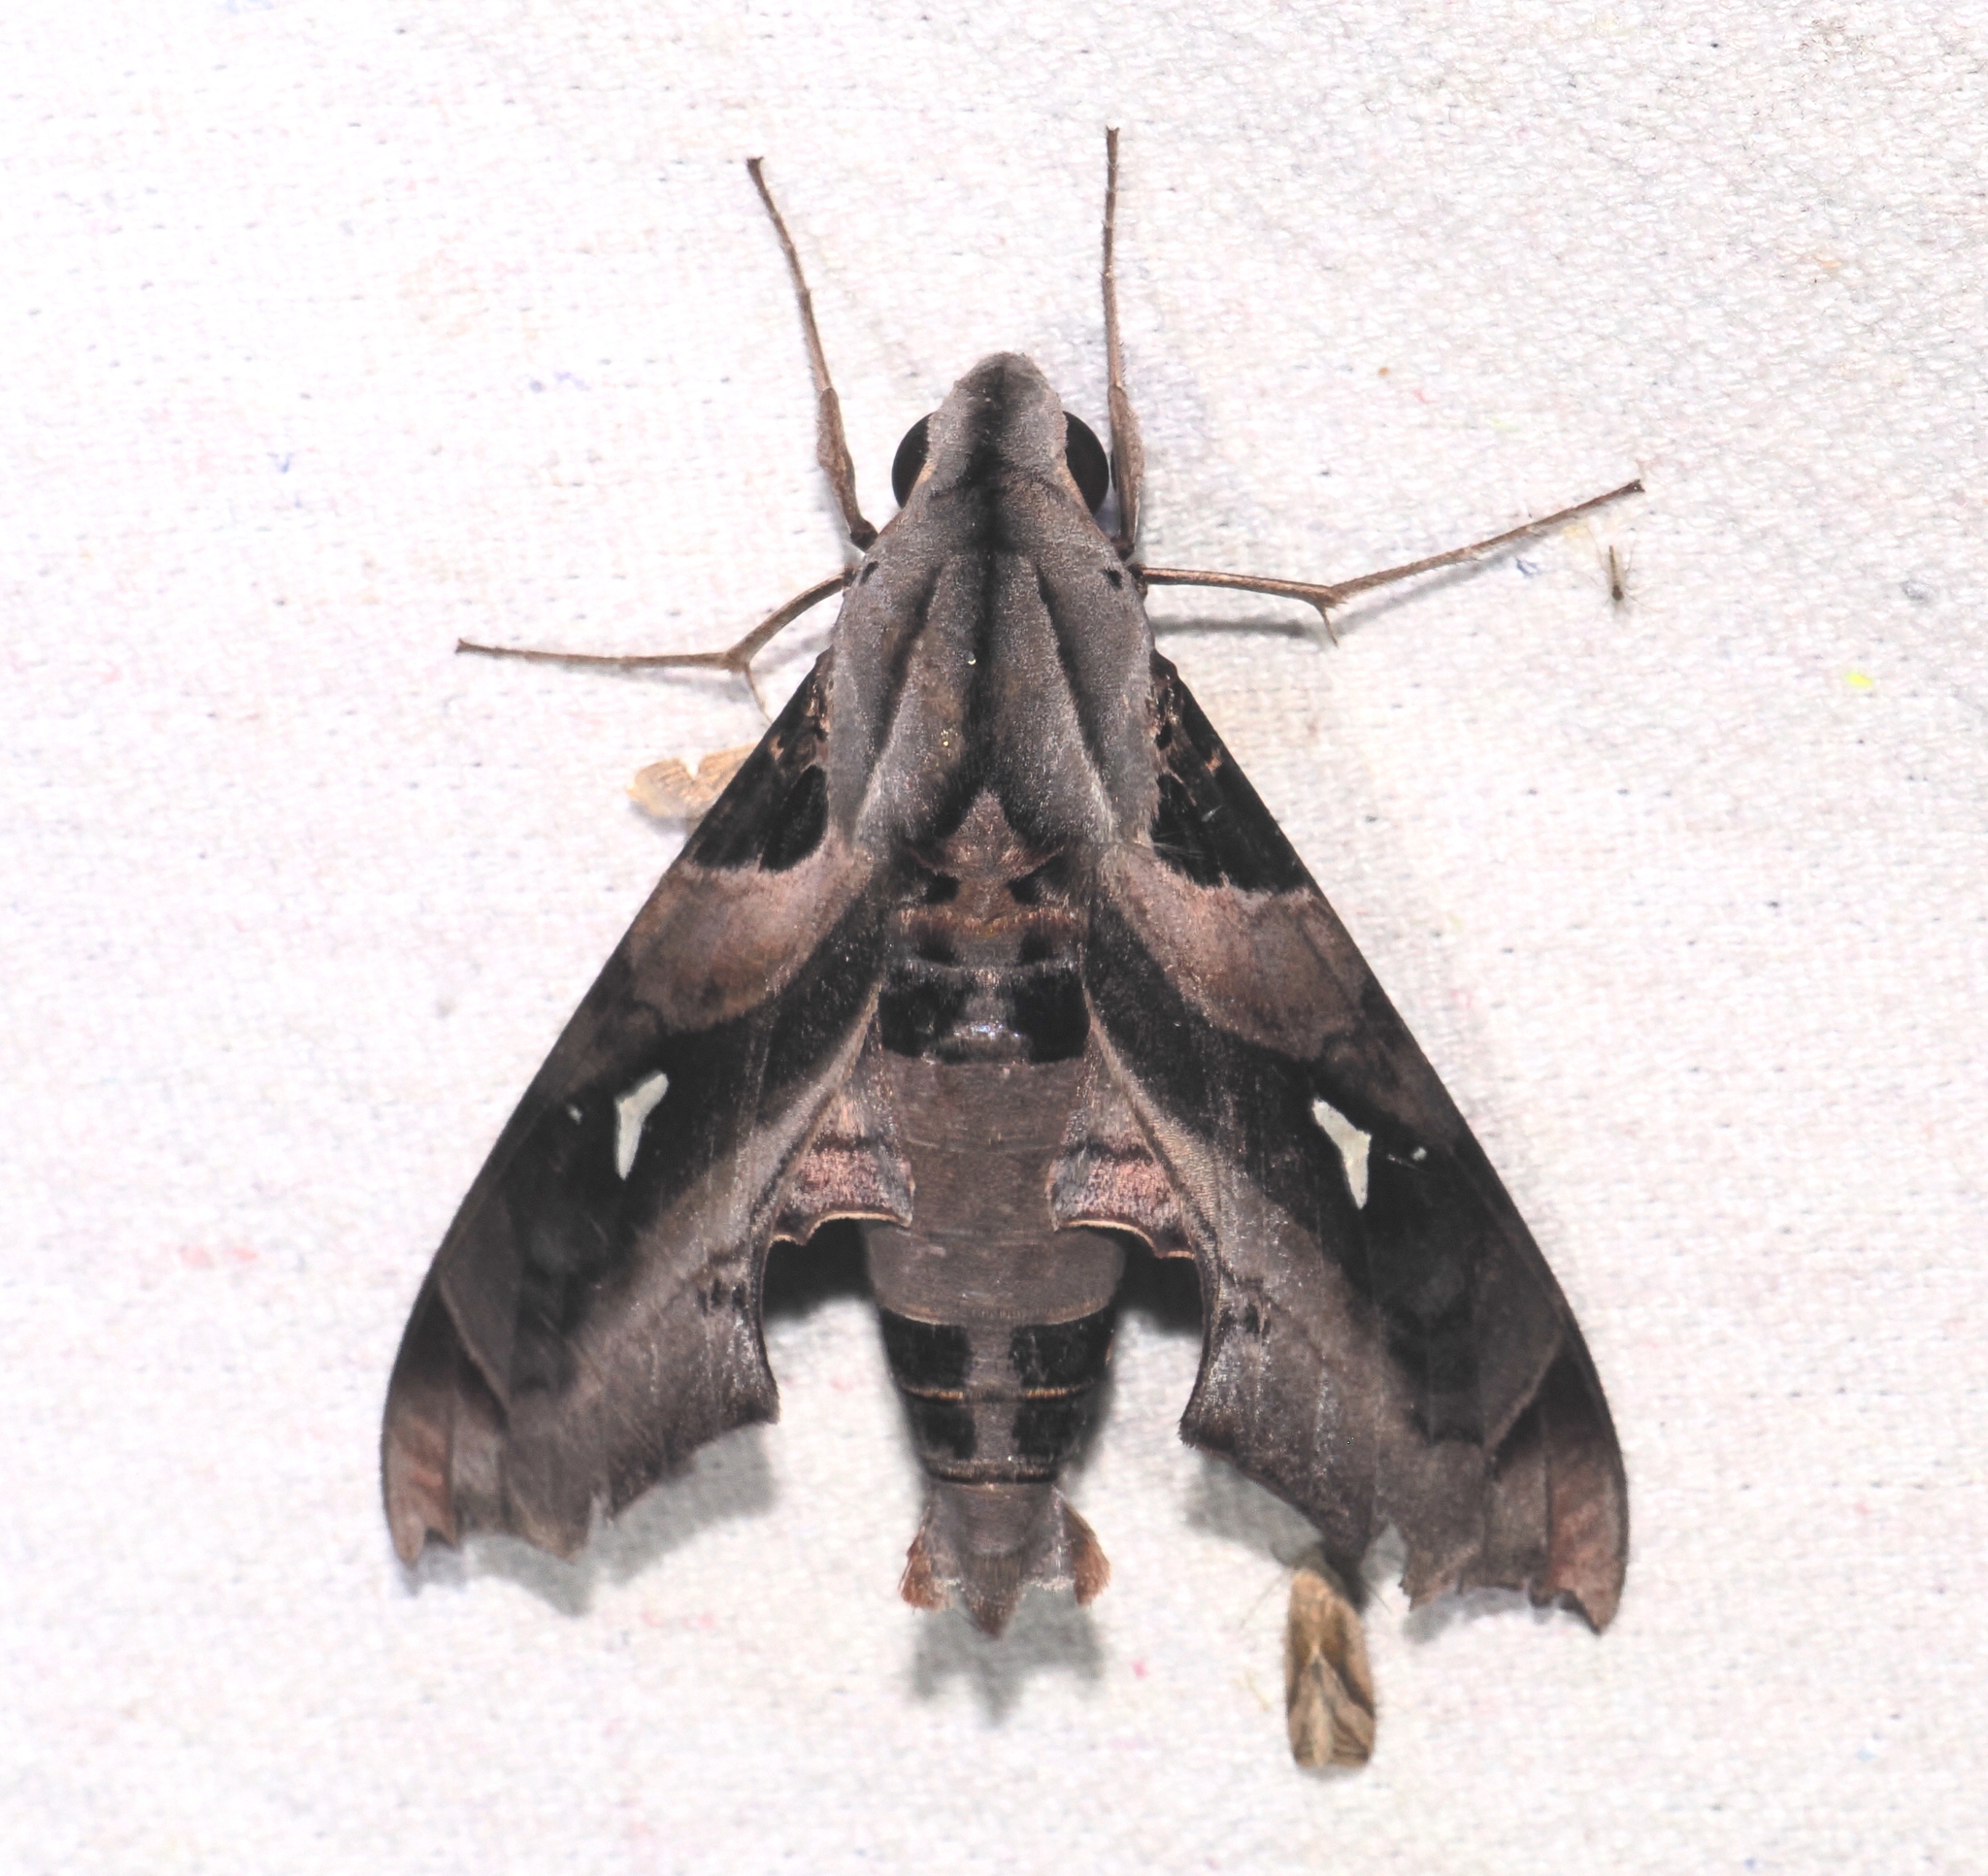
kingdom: Animalia
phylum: Arthropoda
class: Insecta
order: Lepidoptera
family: Sphingidae
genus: Madoryx
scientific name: Madoryx plutonius
